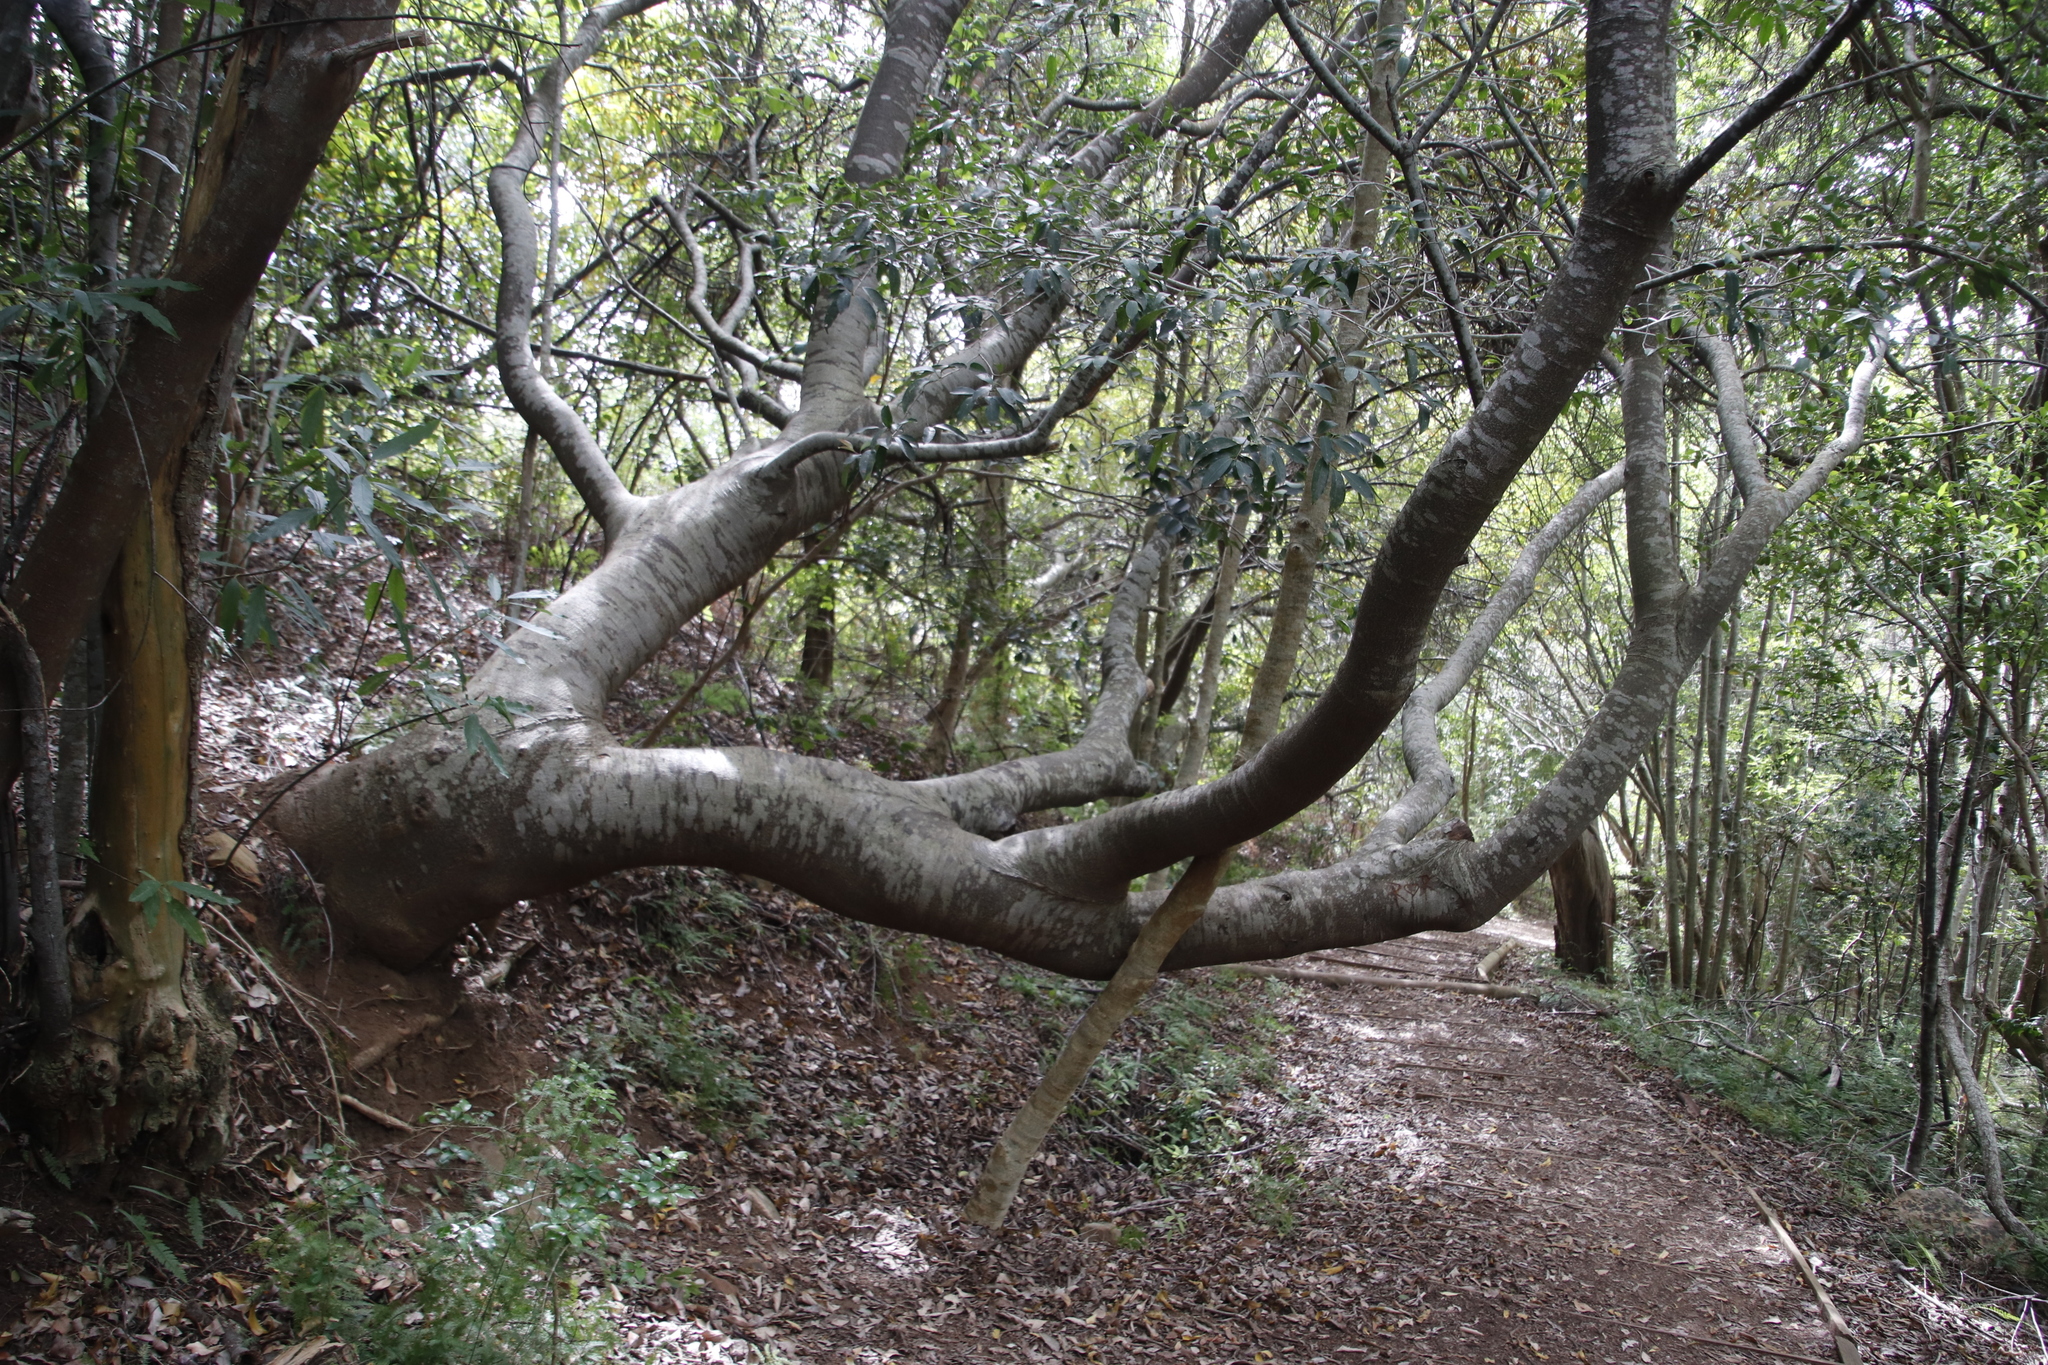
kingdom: Plantae
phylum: Tracheophyta
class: Magnoliopsida
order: Proteales
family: Proteaceae
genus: Brabejum
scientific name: Brabejum stellatifolium
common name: Wild almond
